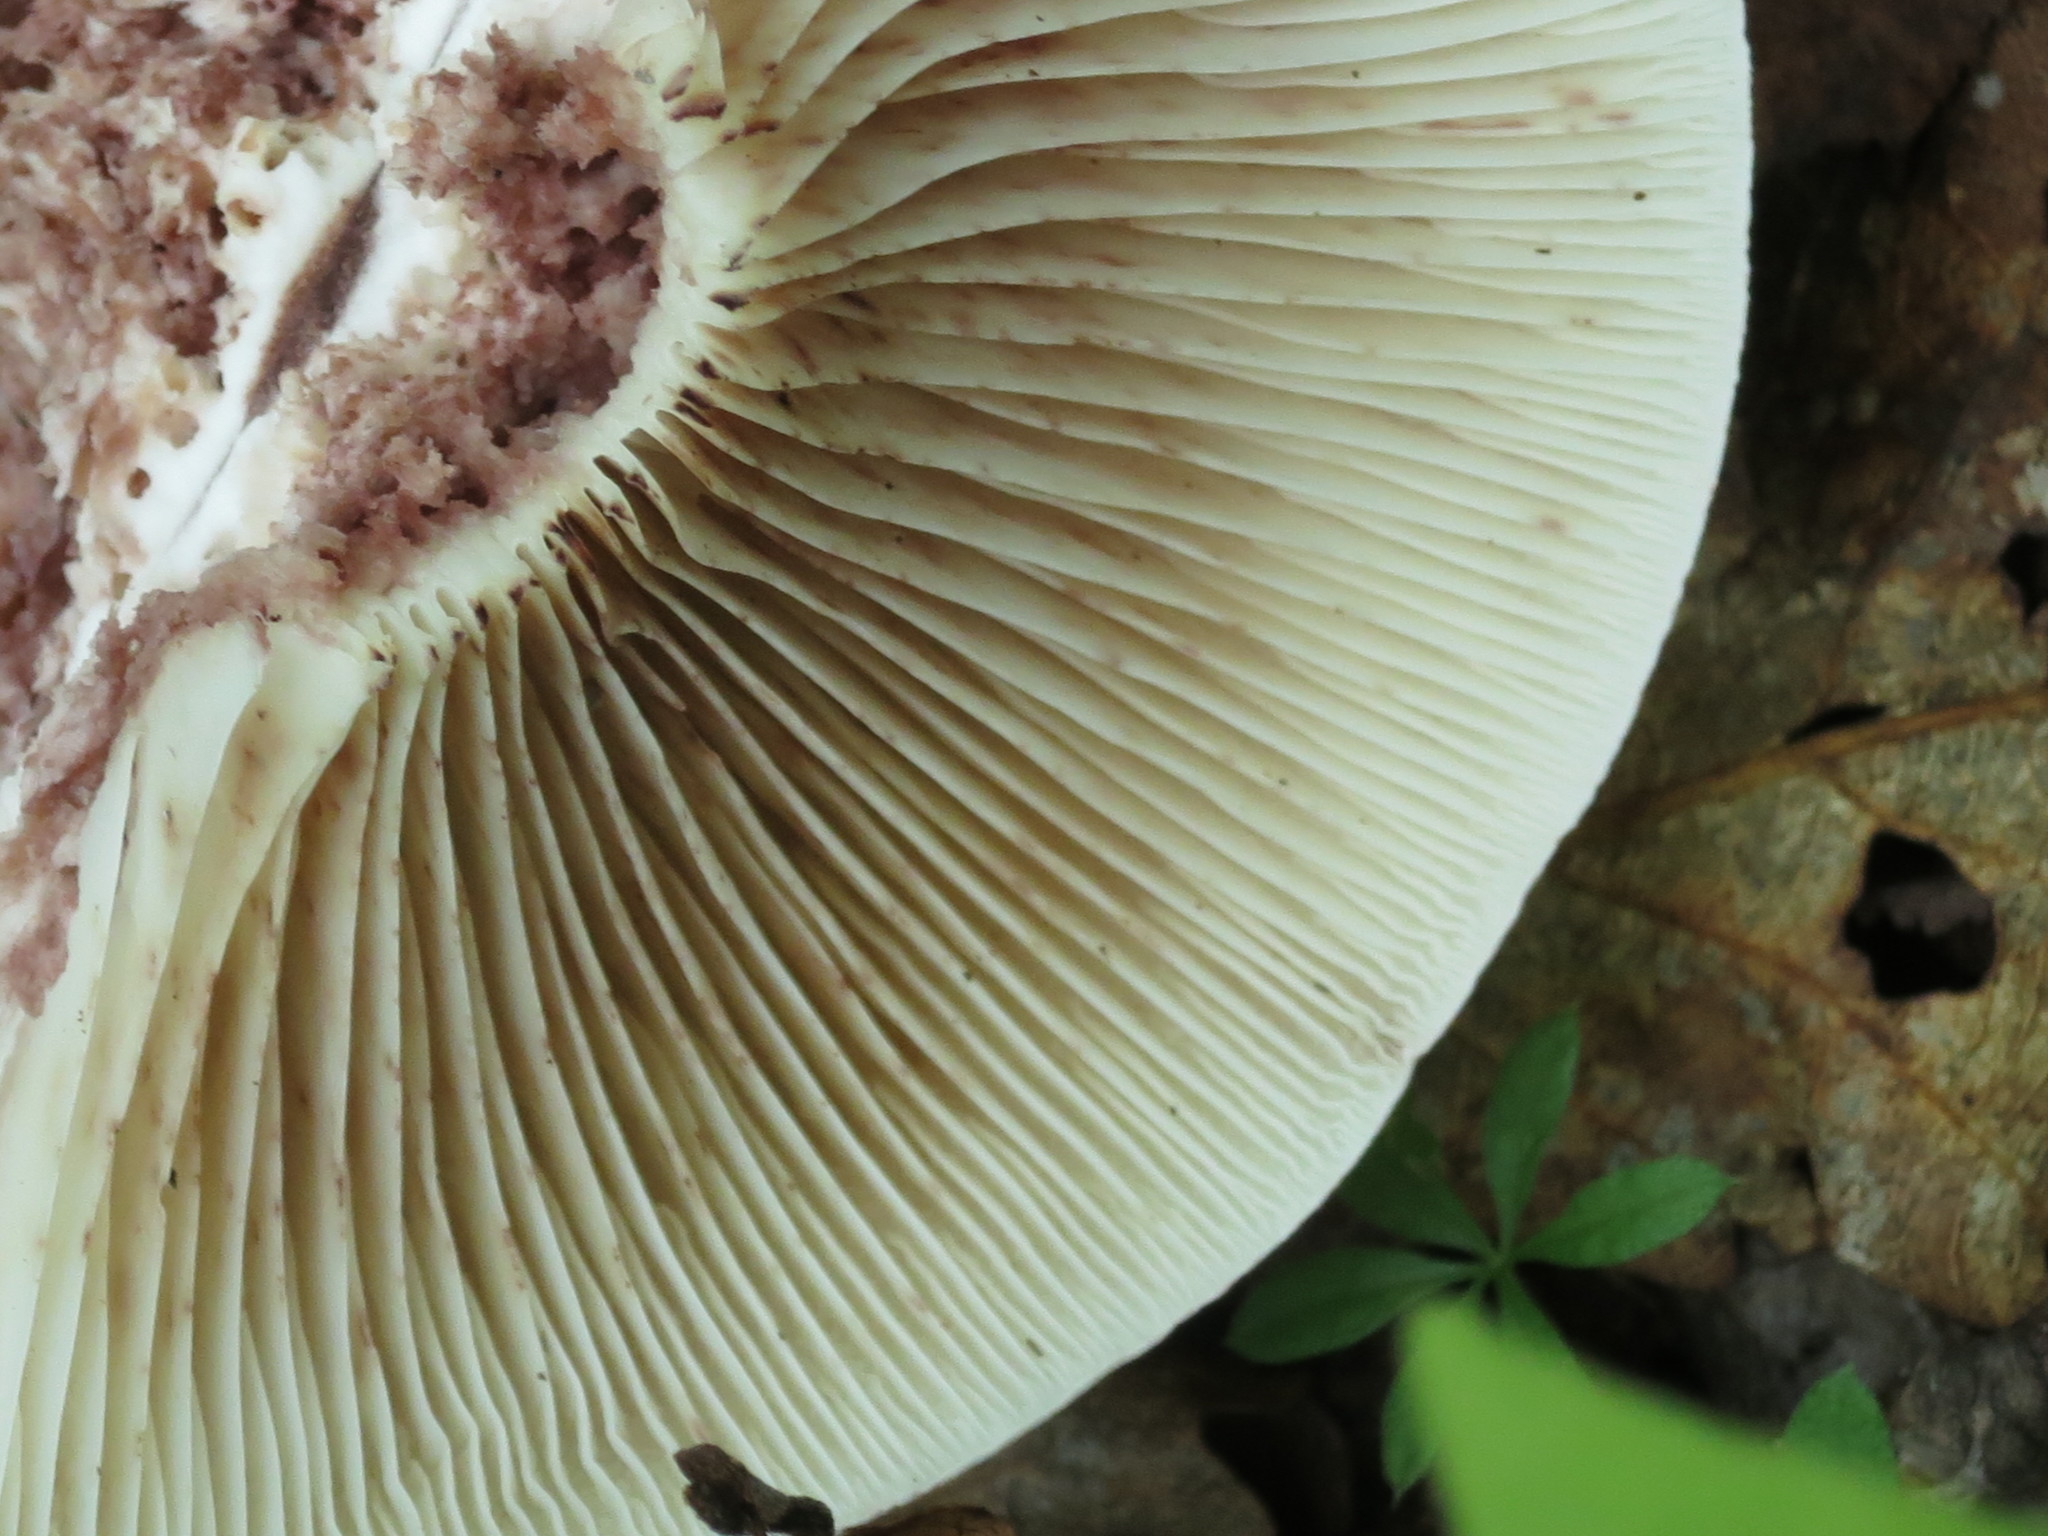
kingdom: Fungi
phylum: Basidiomycota
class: Agaricomycetes
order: Agaricales
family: Hygrophoraceae
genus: Hygrophorus
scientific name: Hygrophorus russula
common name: Pinkmottle woodwax
